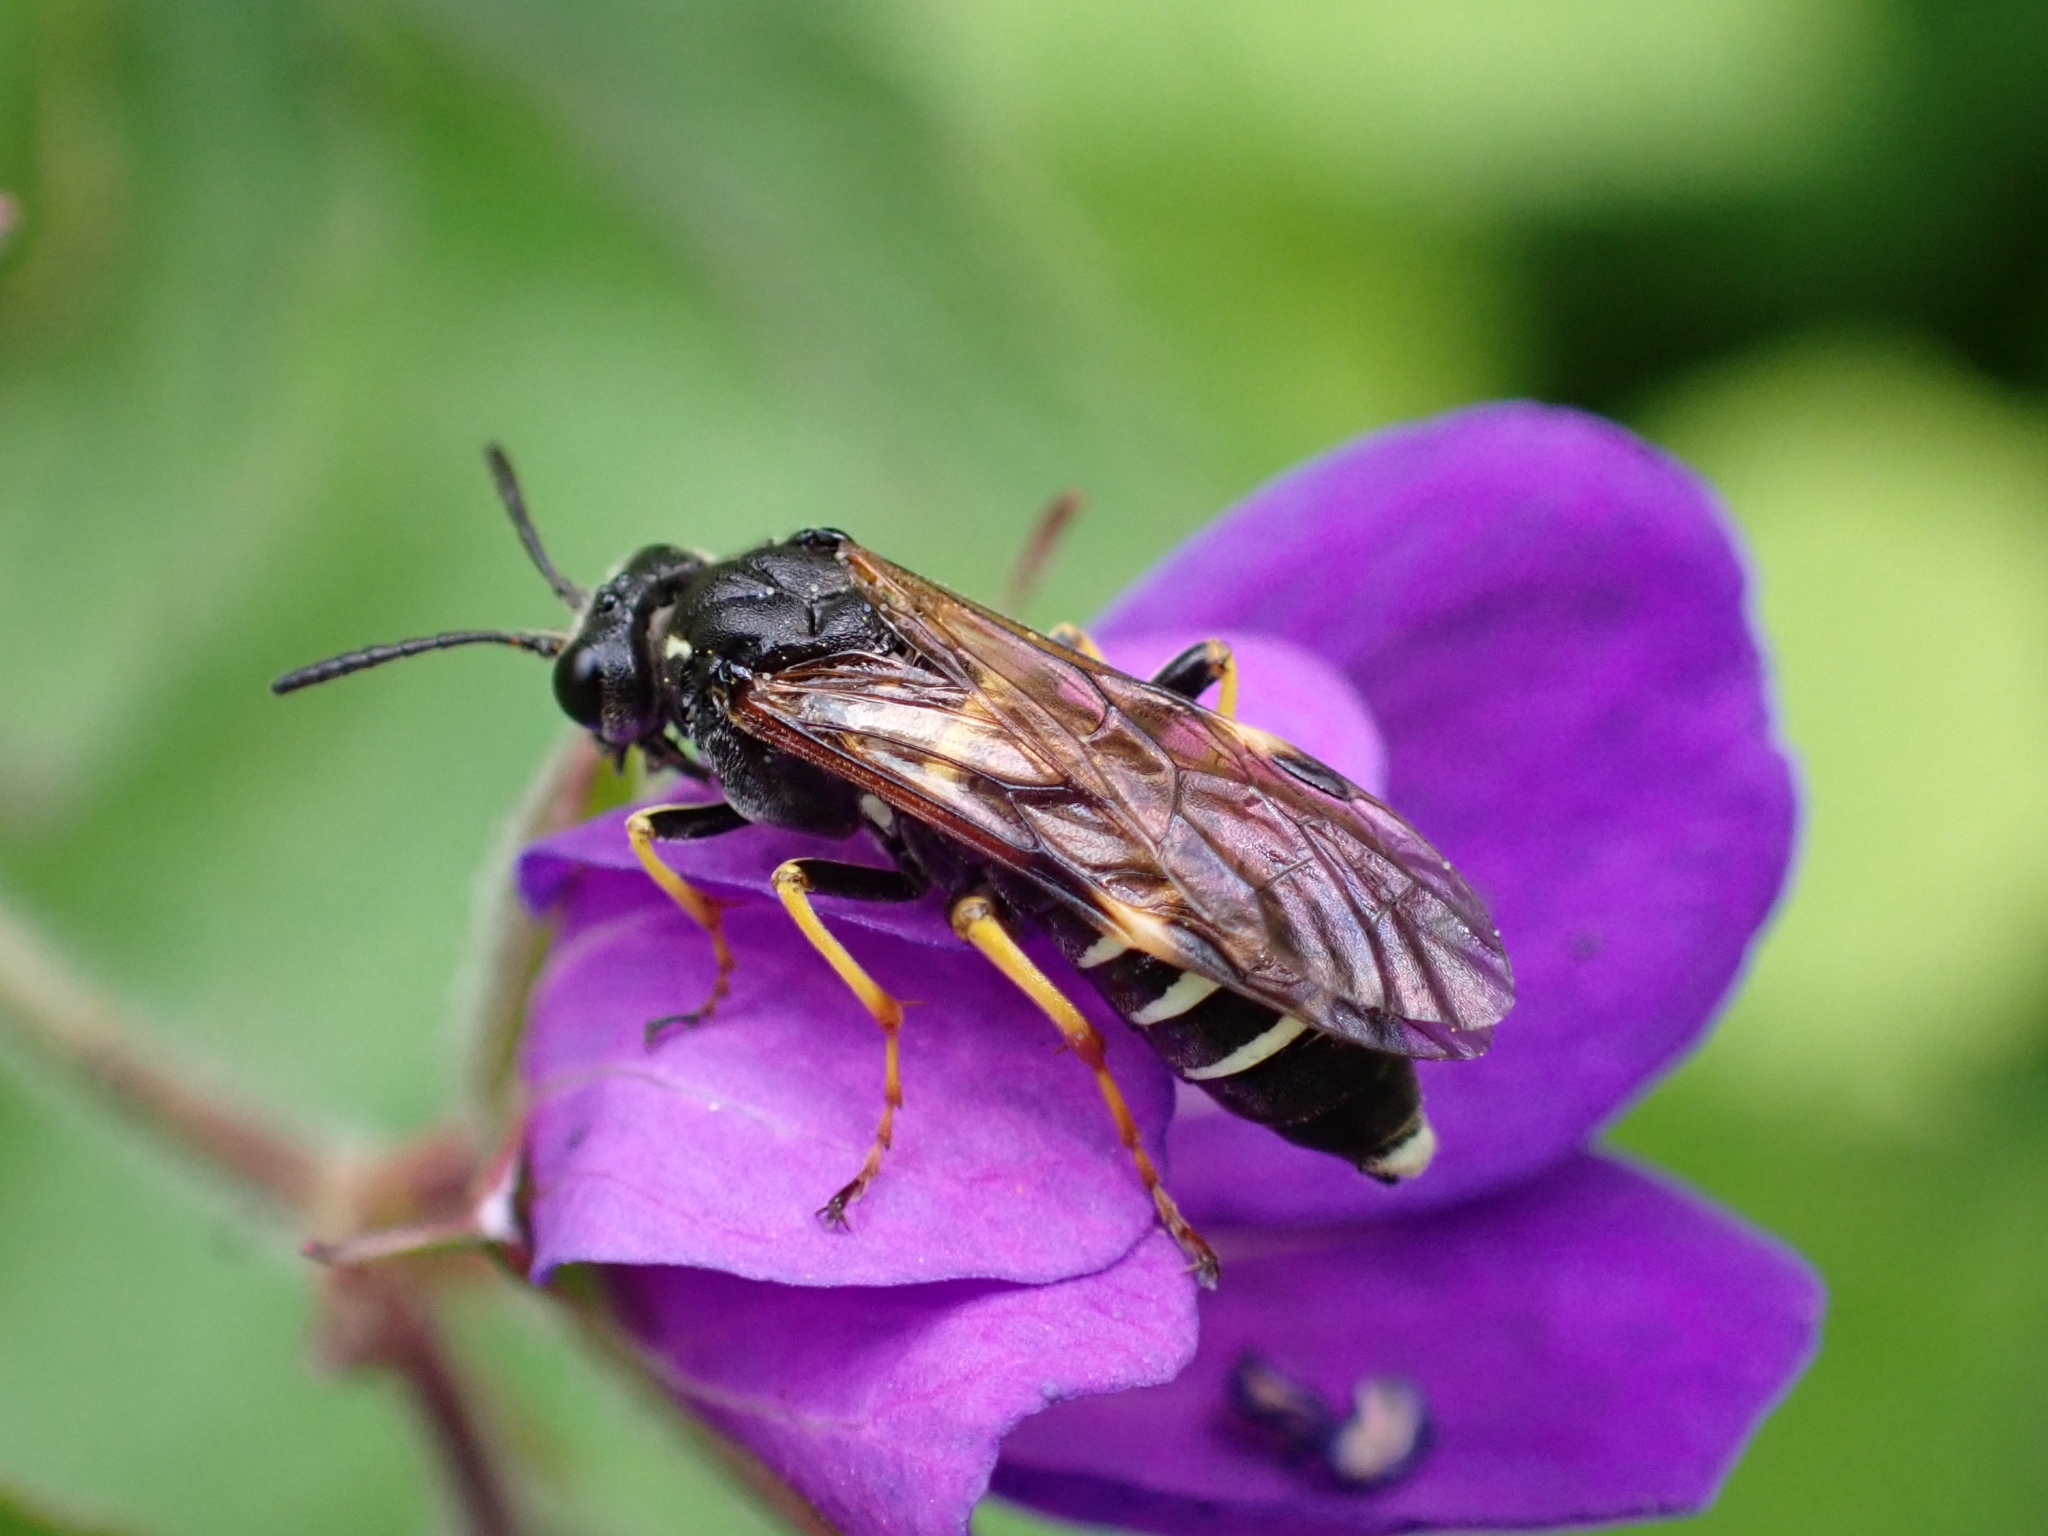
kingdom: Animalia
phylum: Arthropoda
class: Insecta
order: Hymenoptera
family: Tenthredinidae
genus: Tenthredo
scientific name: Tenthredo koehleri
